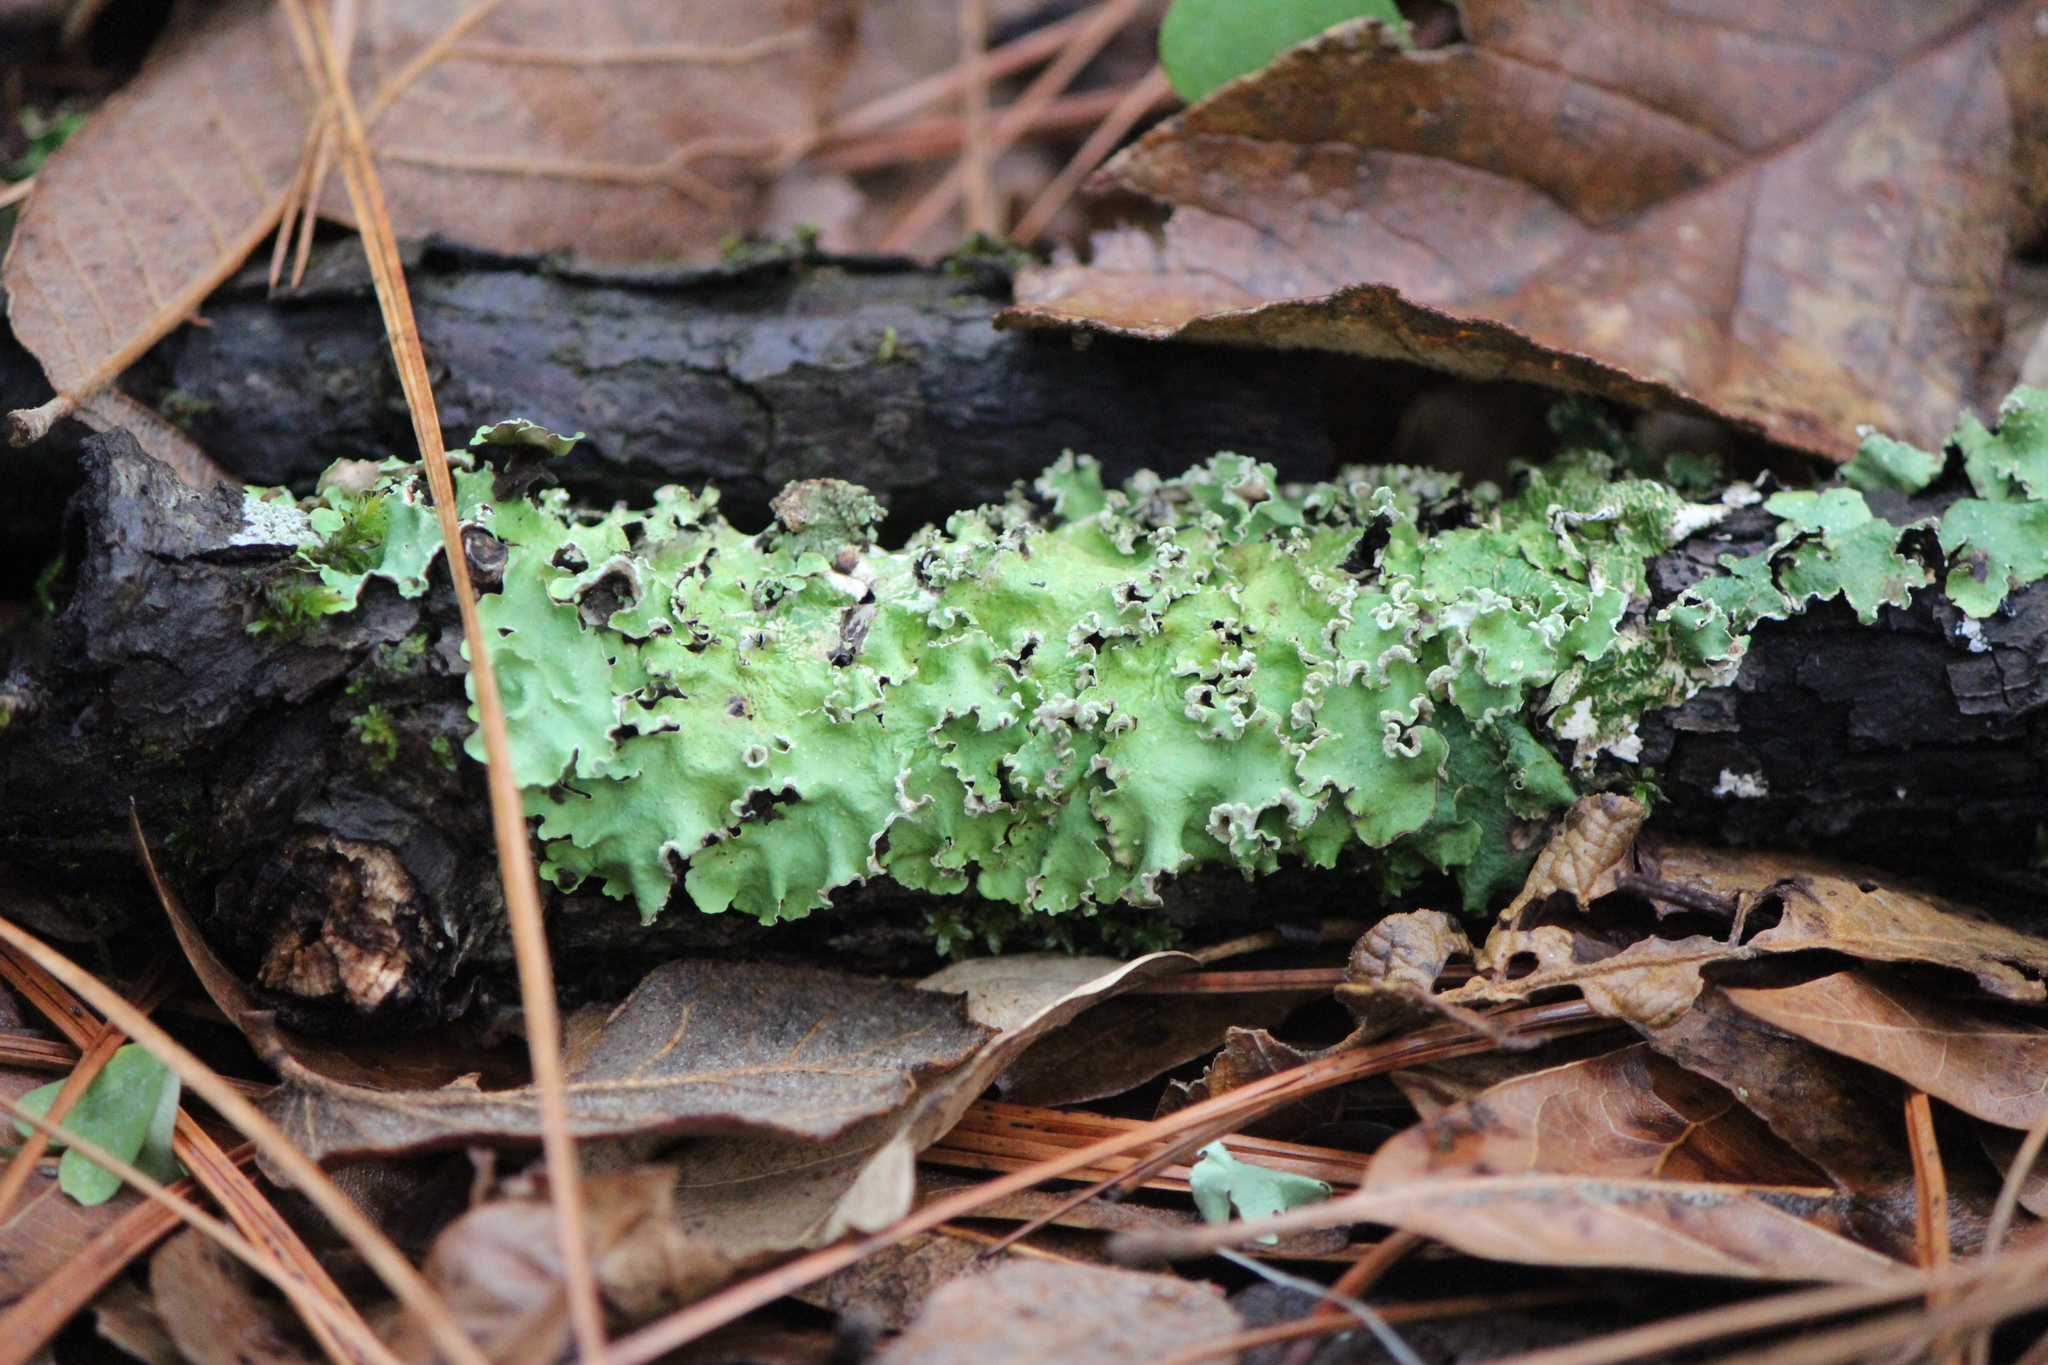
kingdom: Fungi
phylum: Ascomycota
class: Lecanoromycetes
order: Lecanorales
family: Parmeliaceae
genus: Flavopunctelia
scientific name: Flavopunctelia soredica
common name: Powder-edged speckled greenshield
